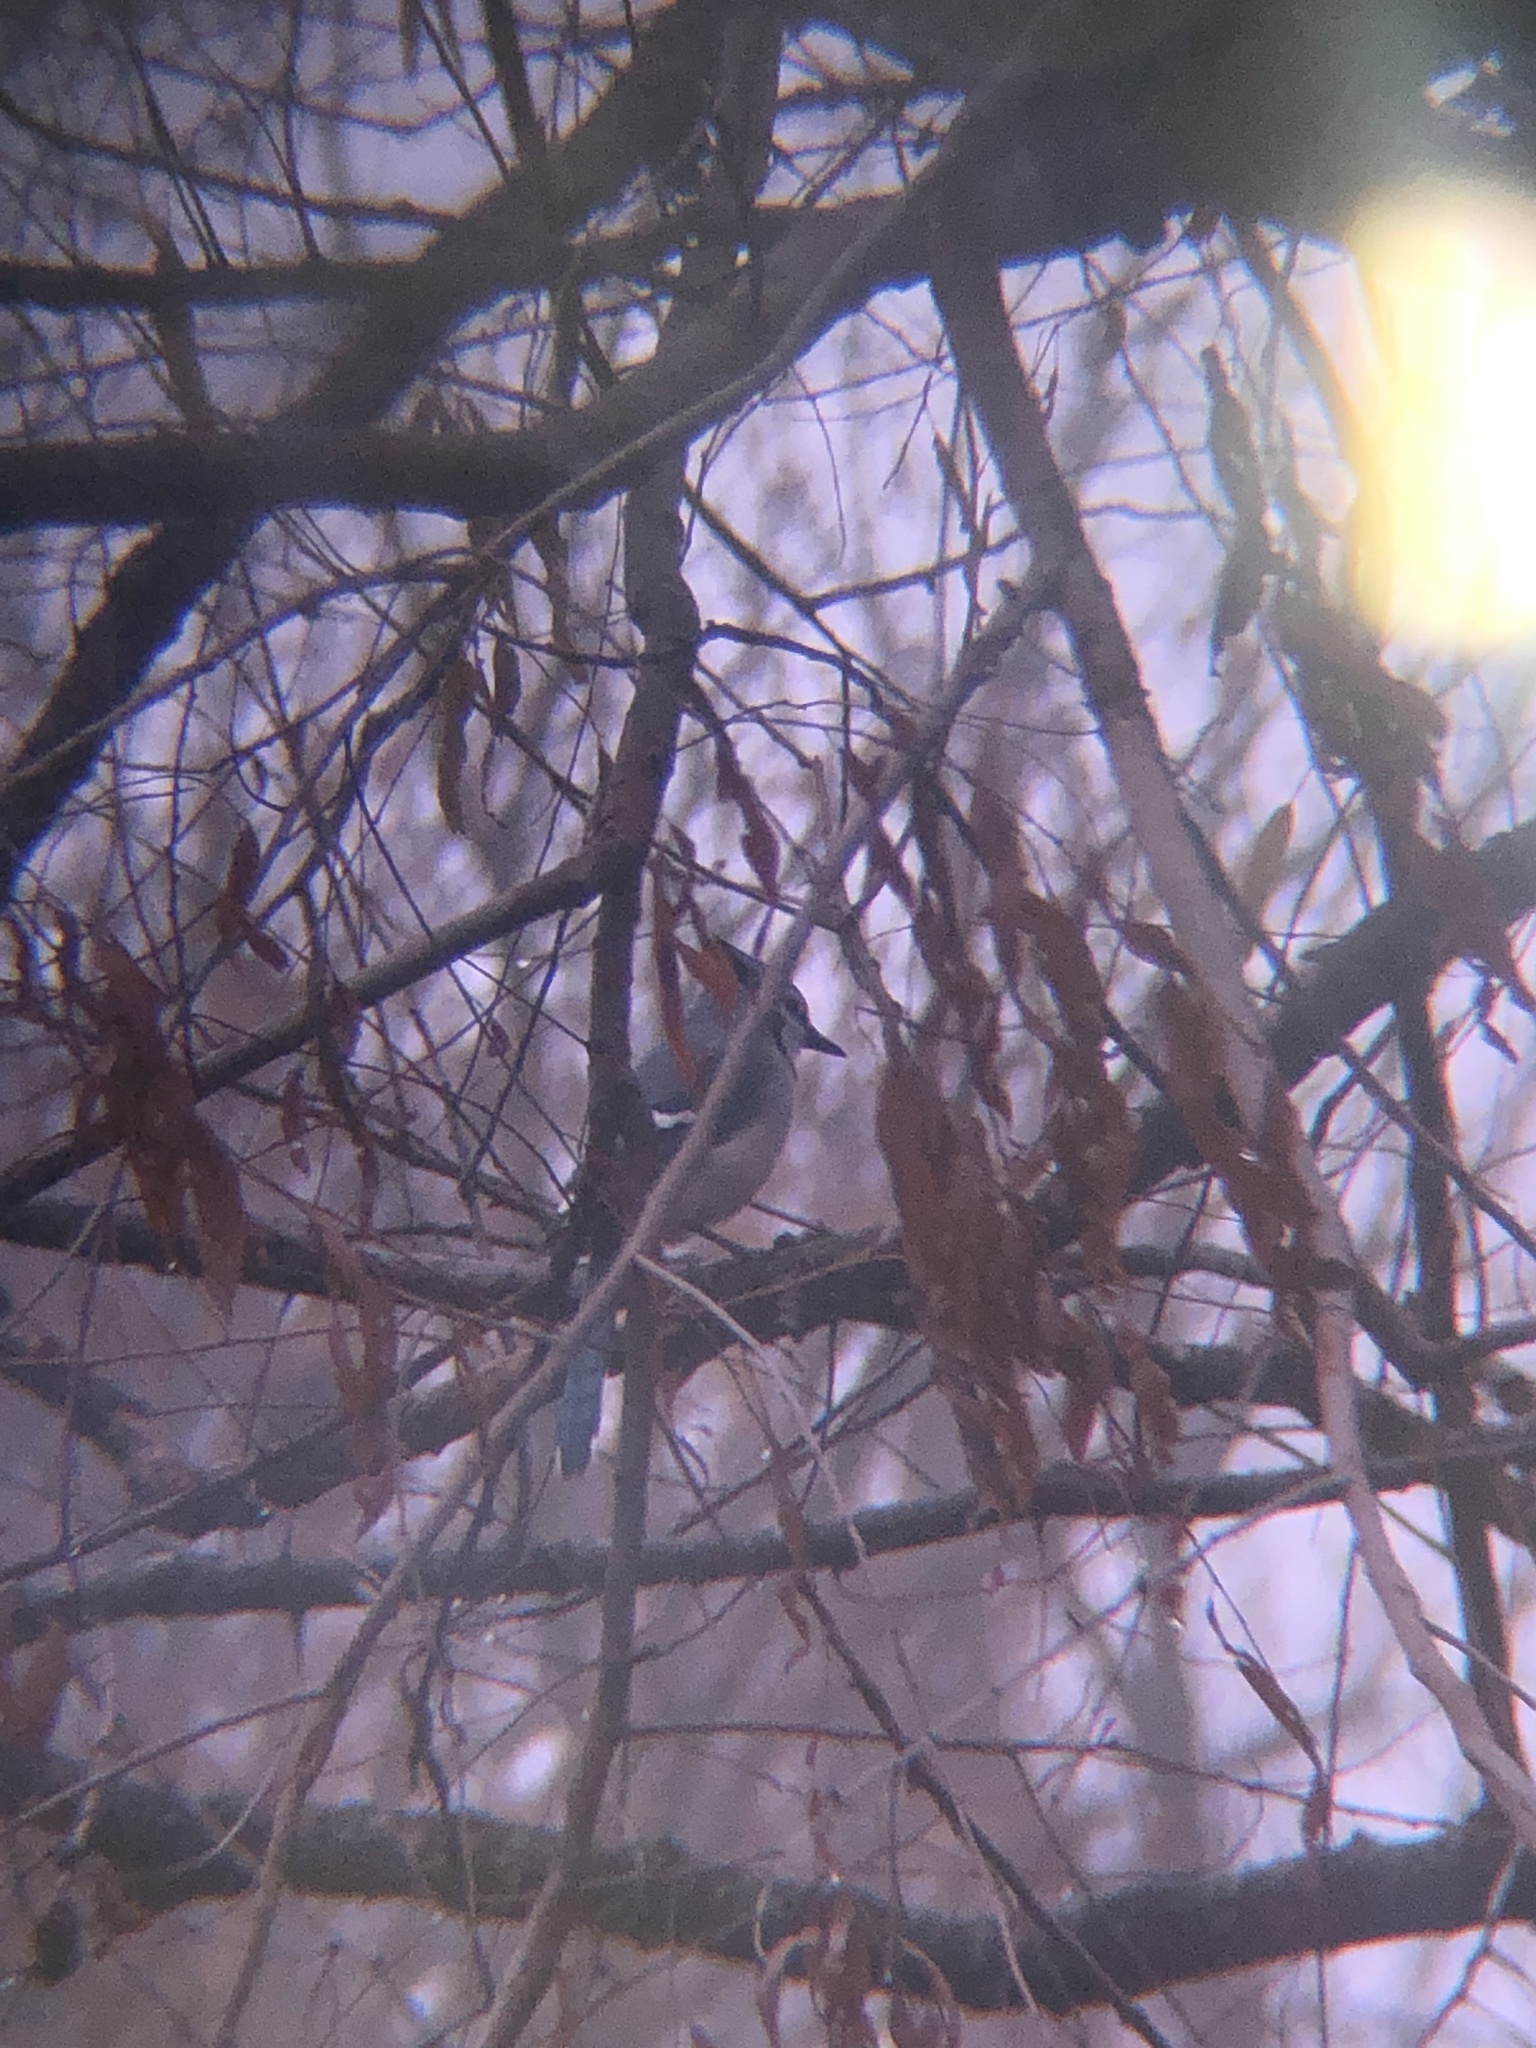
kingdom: Animalia
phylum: Chordata
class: Aves
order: Passeriformes
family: Corvidae
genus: Cyanocitta
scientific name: Cyanocitta cristata
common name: Blue jay
